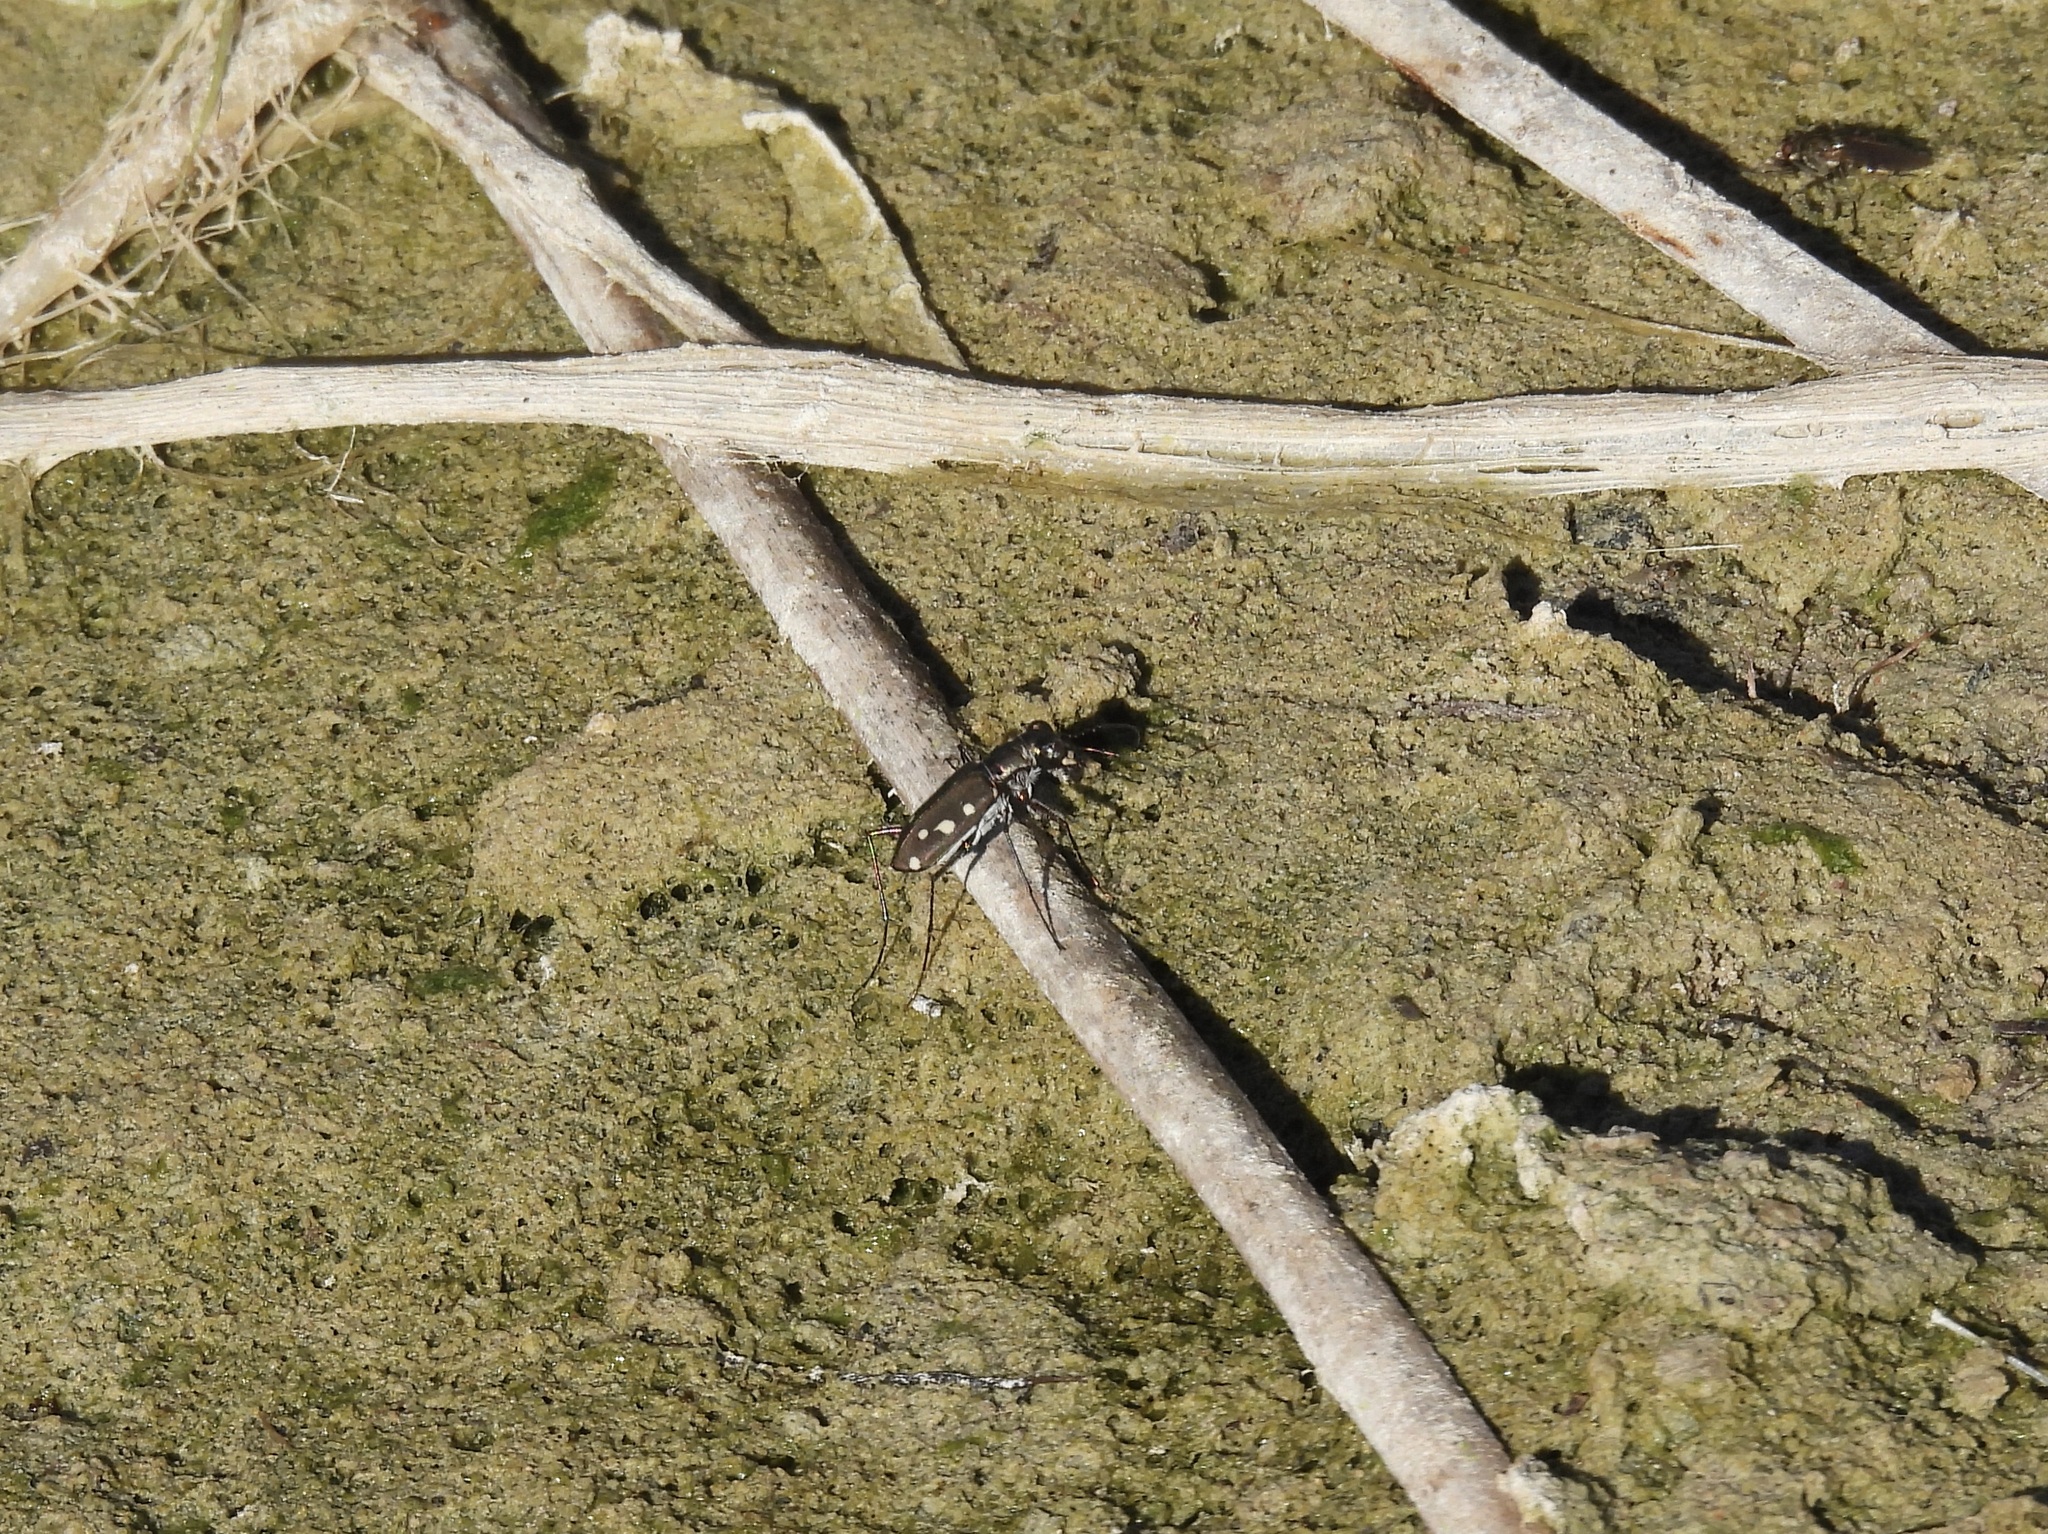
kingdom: Animalia
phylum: Arthropoda
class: Insecta
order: Coleoptera
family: Carabidae
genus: Cicindela
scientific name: Cicindela ocellata
